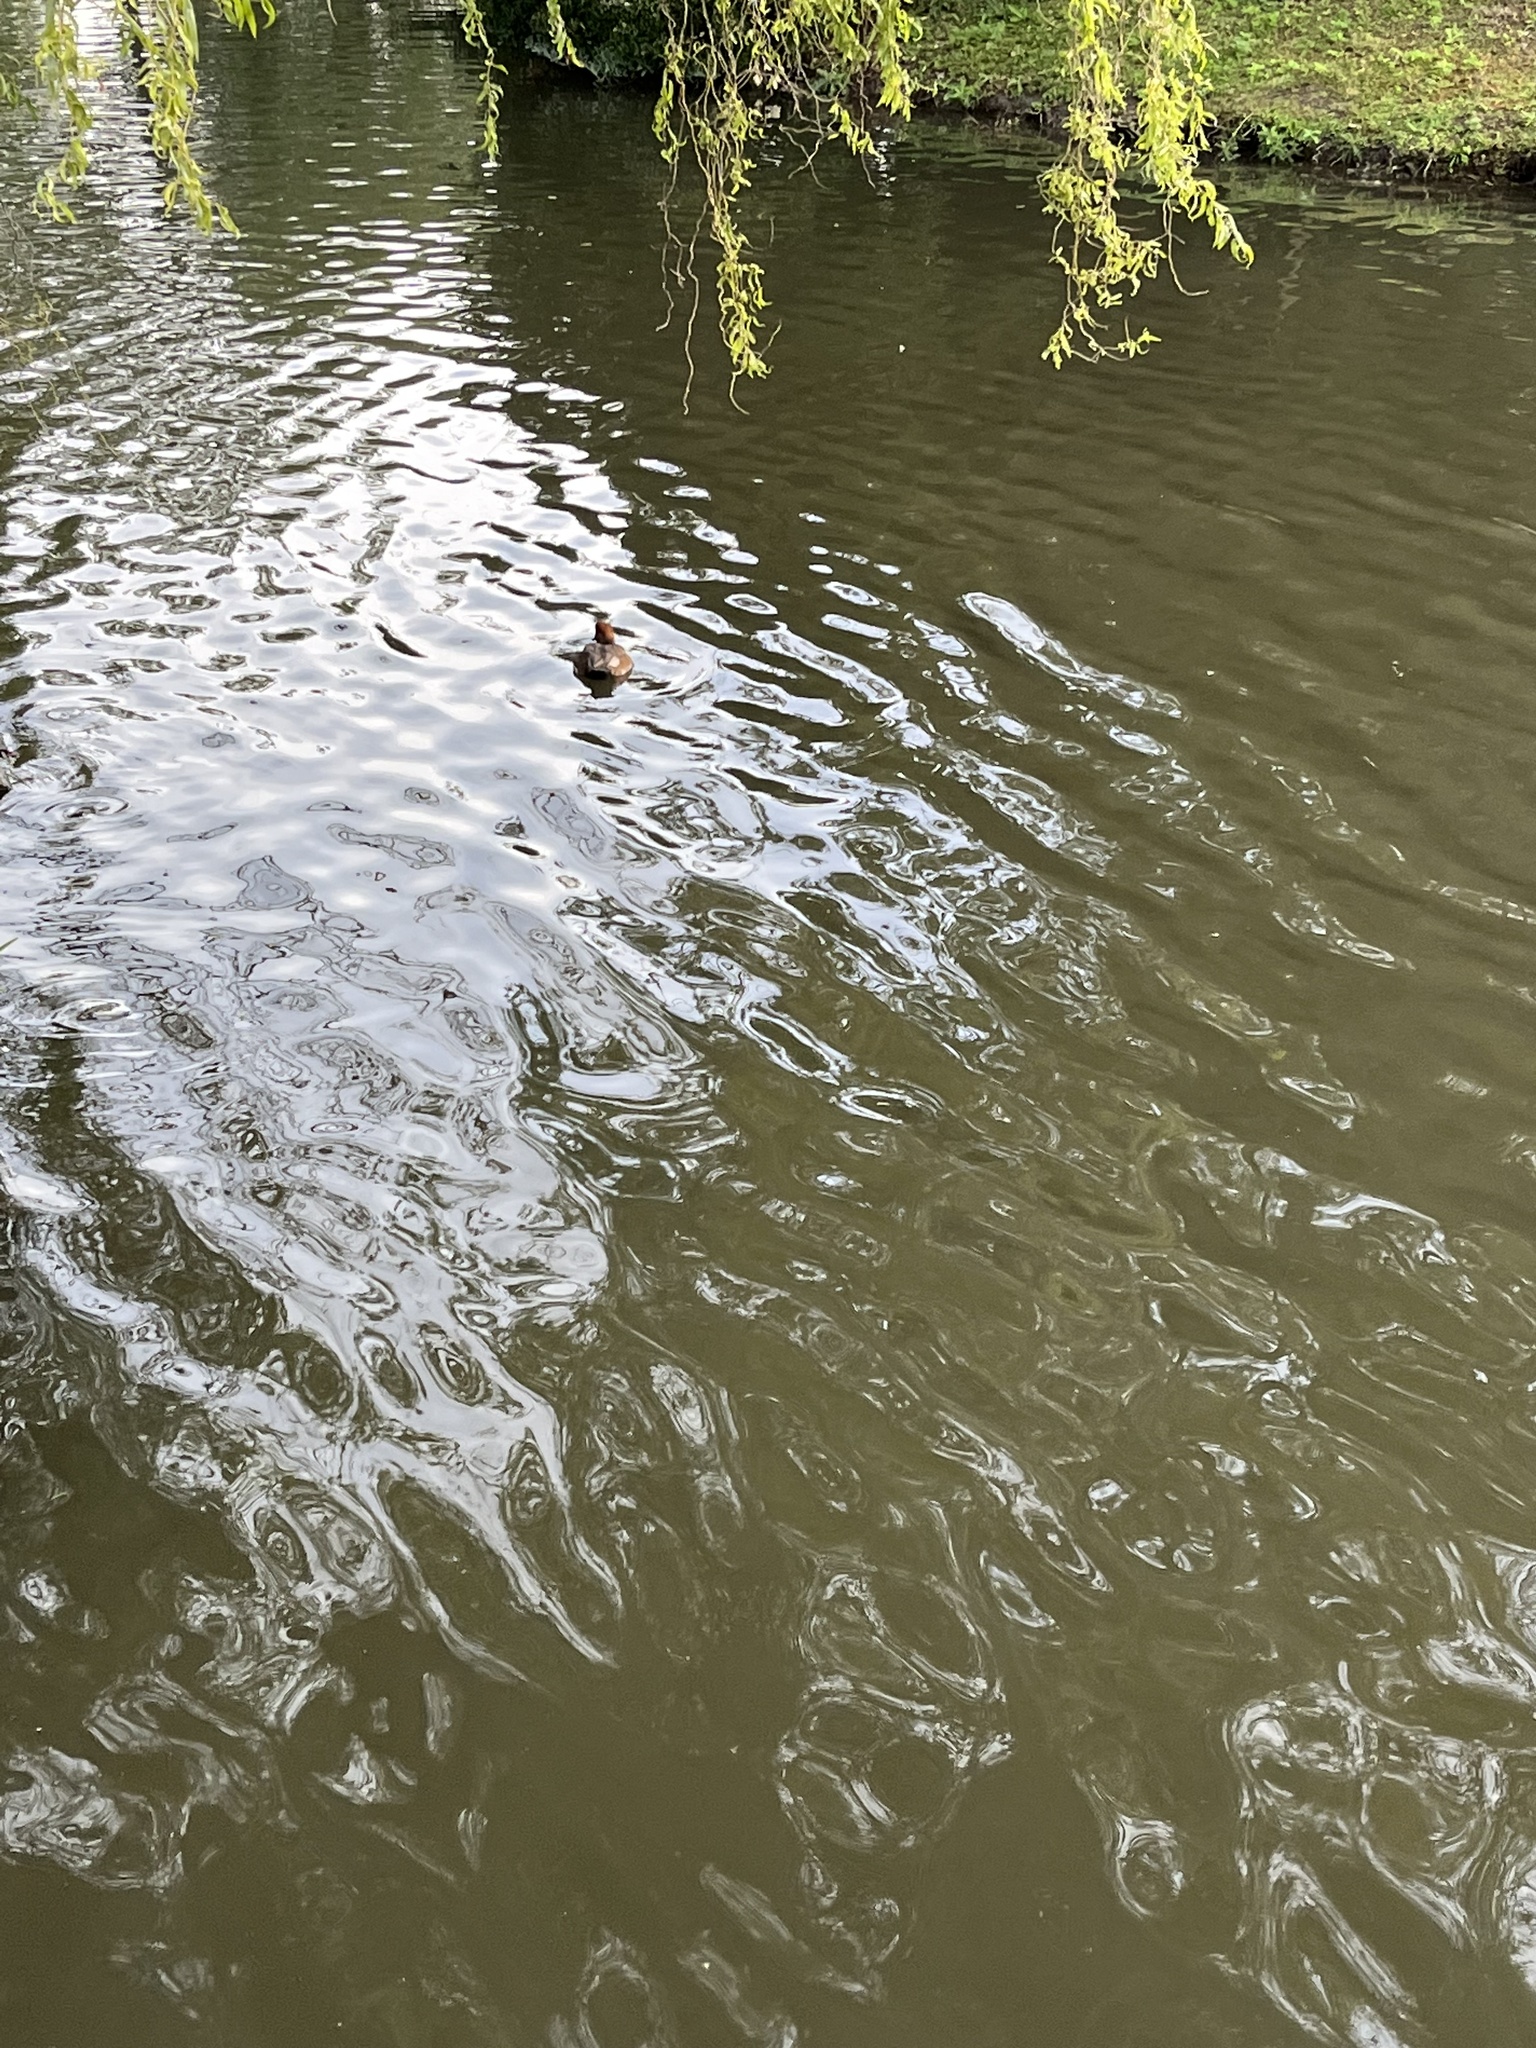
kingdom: Animalia
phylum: Chordata
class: Aves
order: Anseriformes
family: Anatidae
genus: Netta
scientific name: Netta rufina
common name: Red-crested pochard
